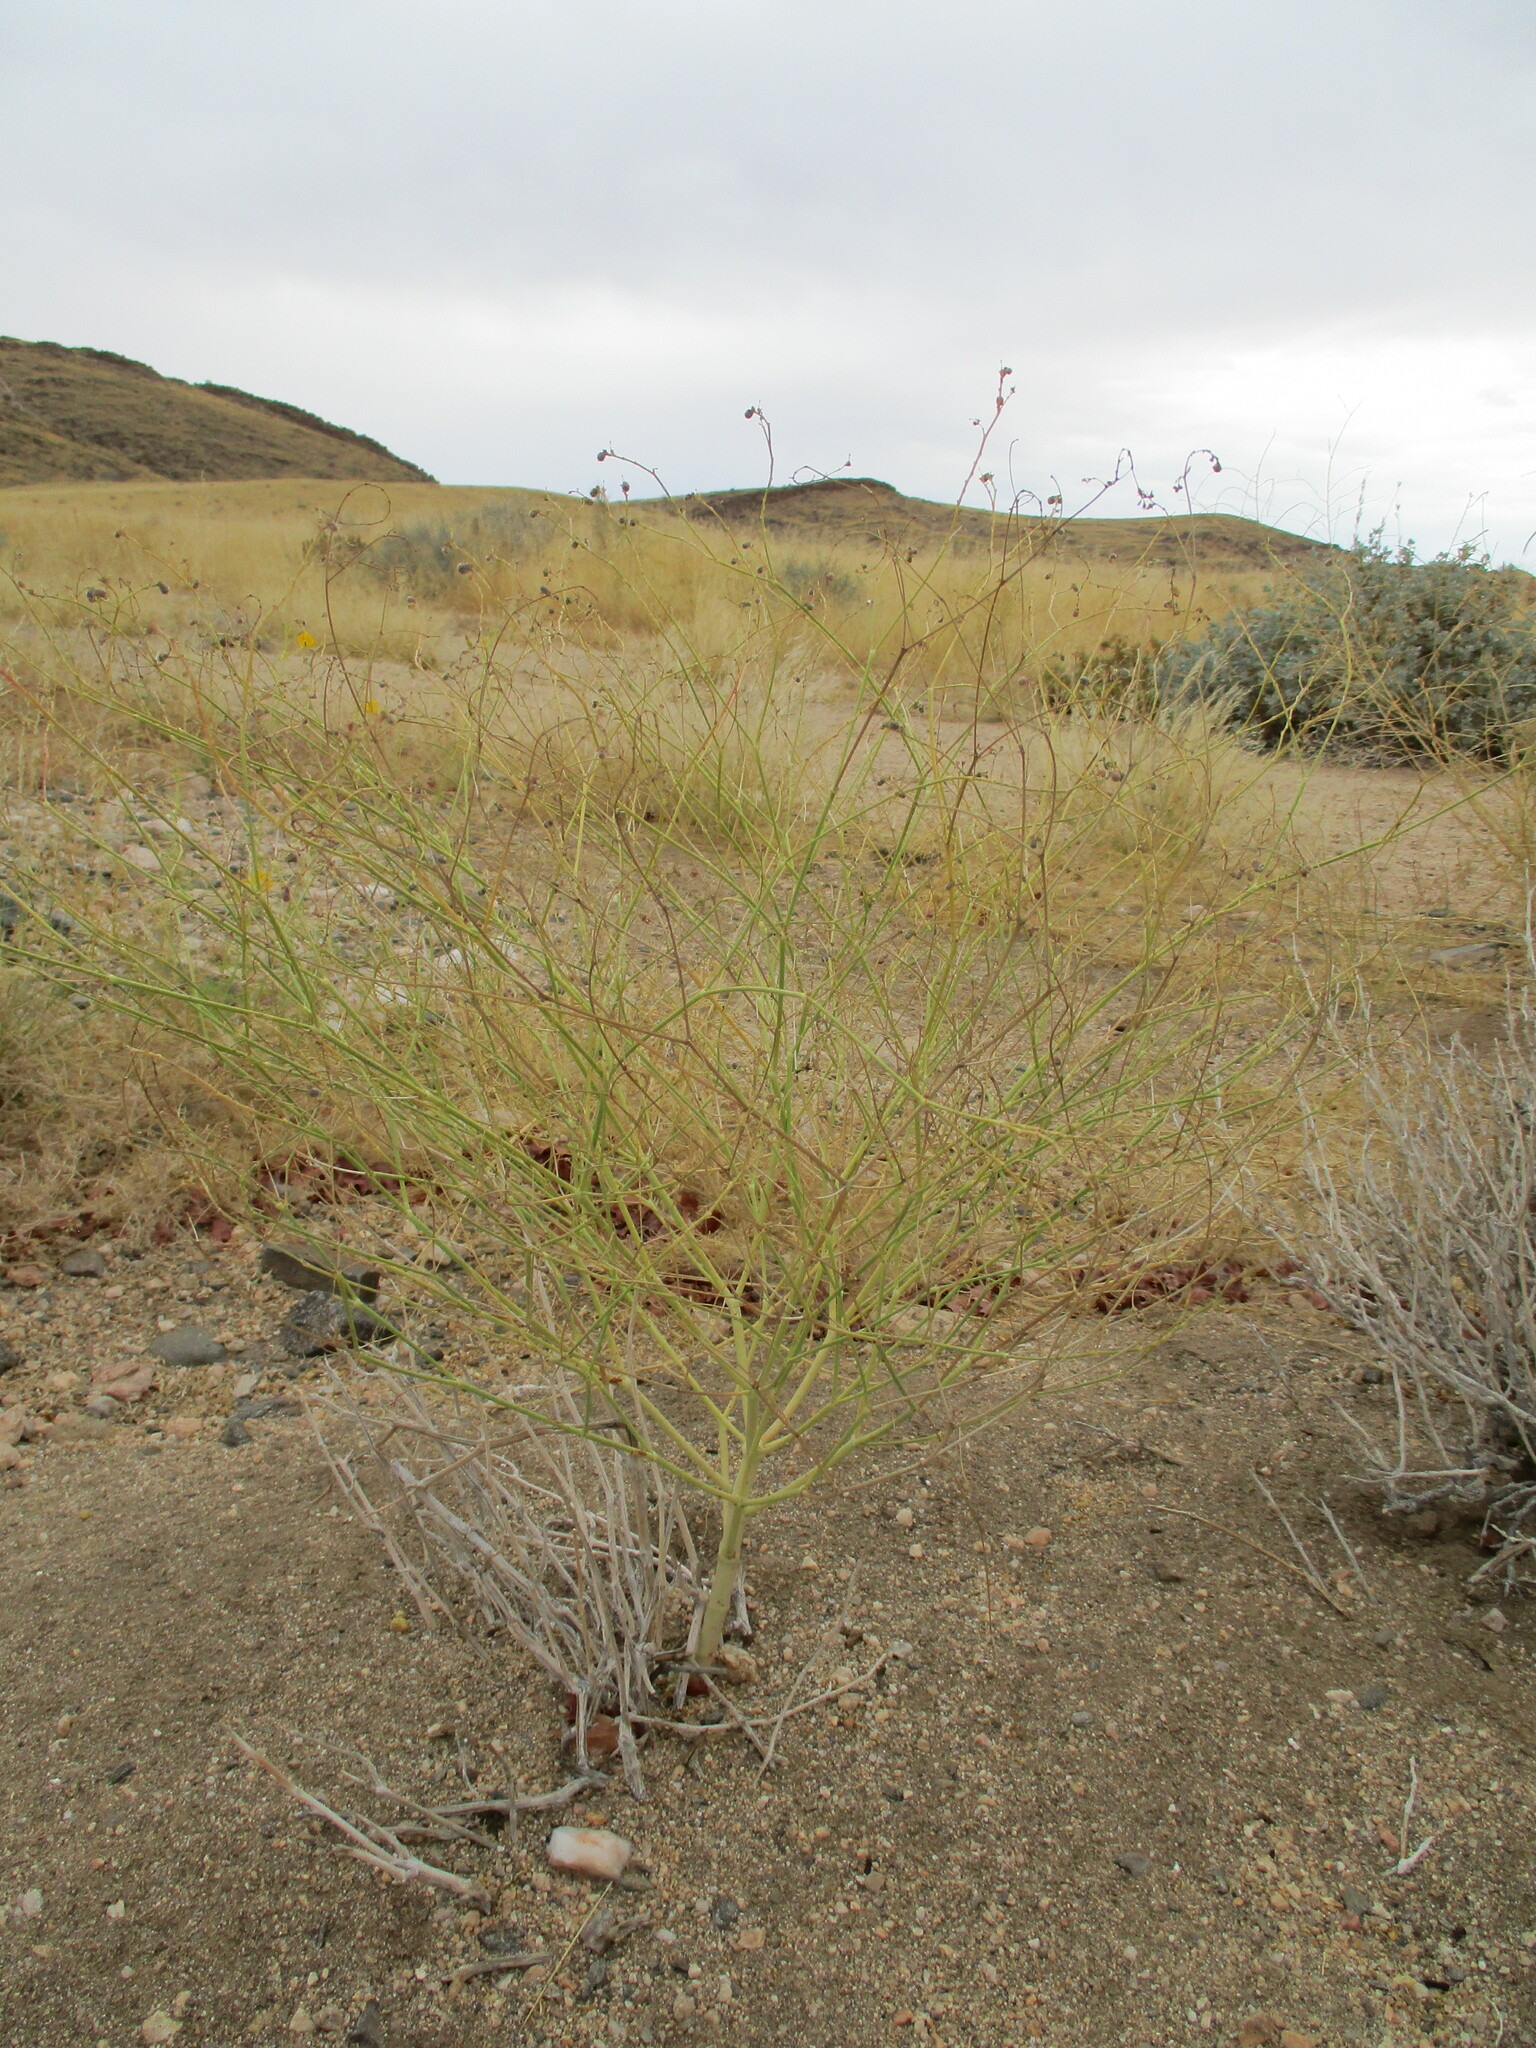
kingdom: Plantae
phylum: Tracheophyta
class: Magnoliopsida
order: Malpighiales
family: Euphorbiaceae
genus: Euphorbia
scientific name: Euphorbia glanduligera
